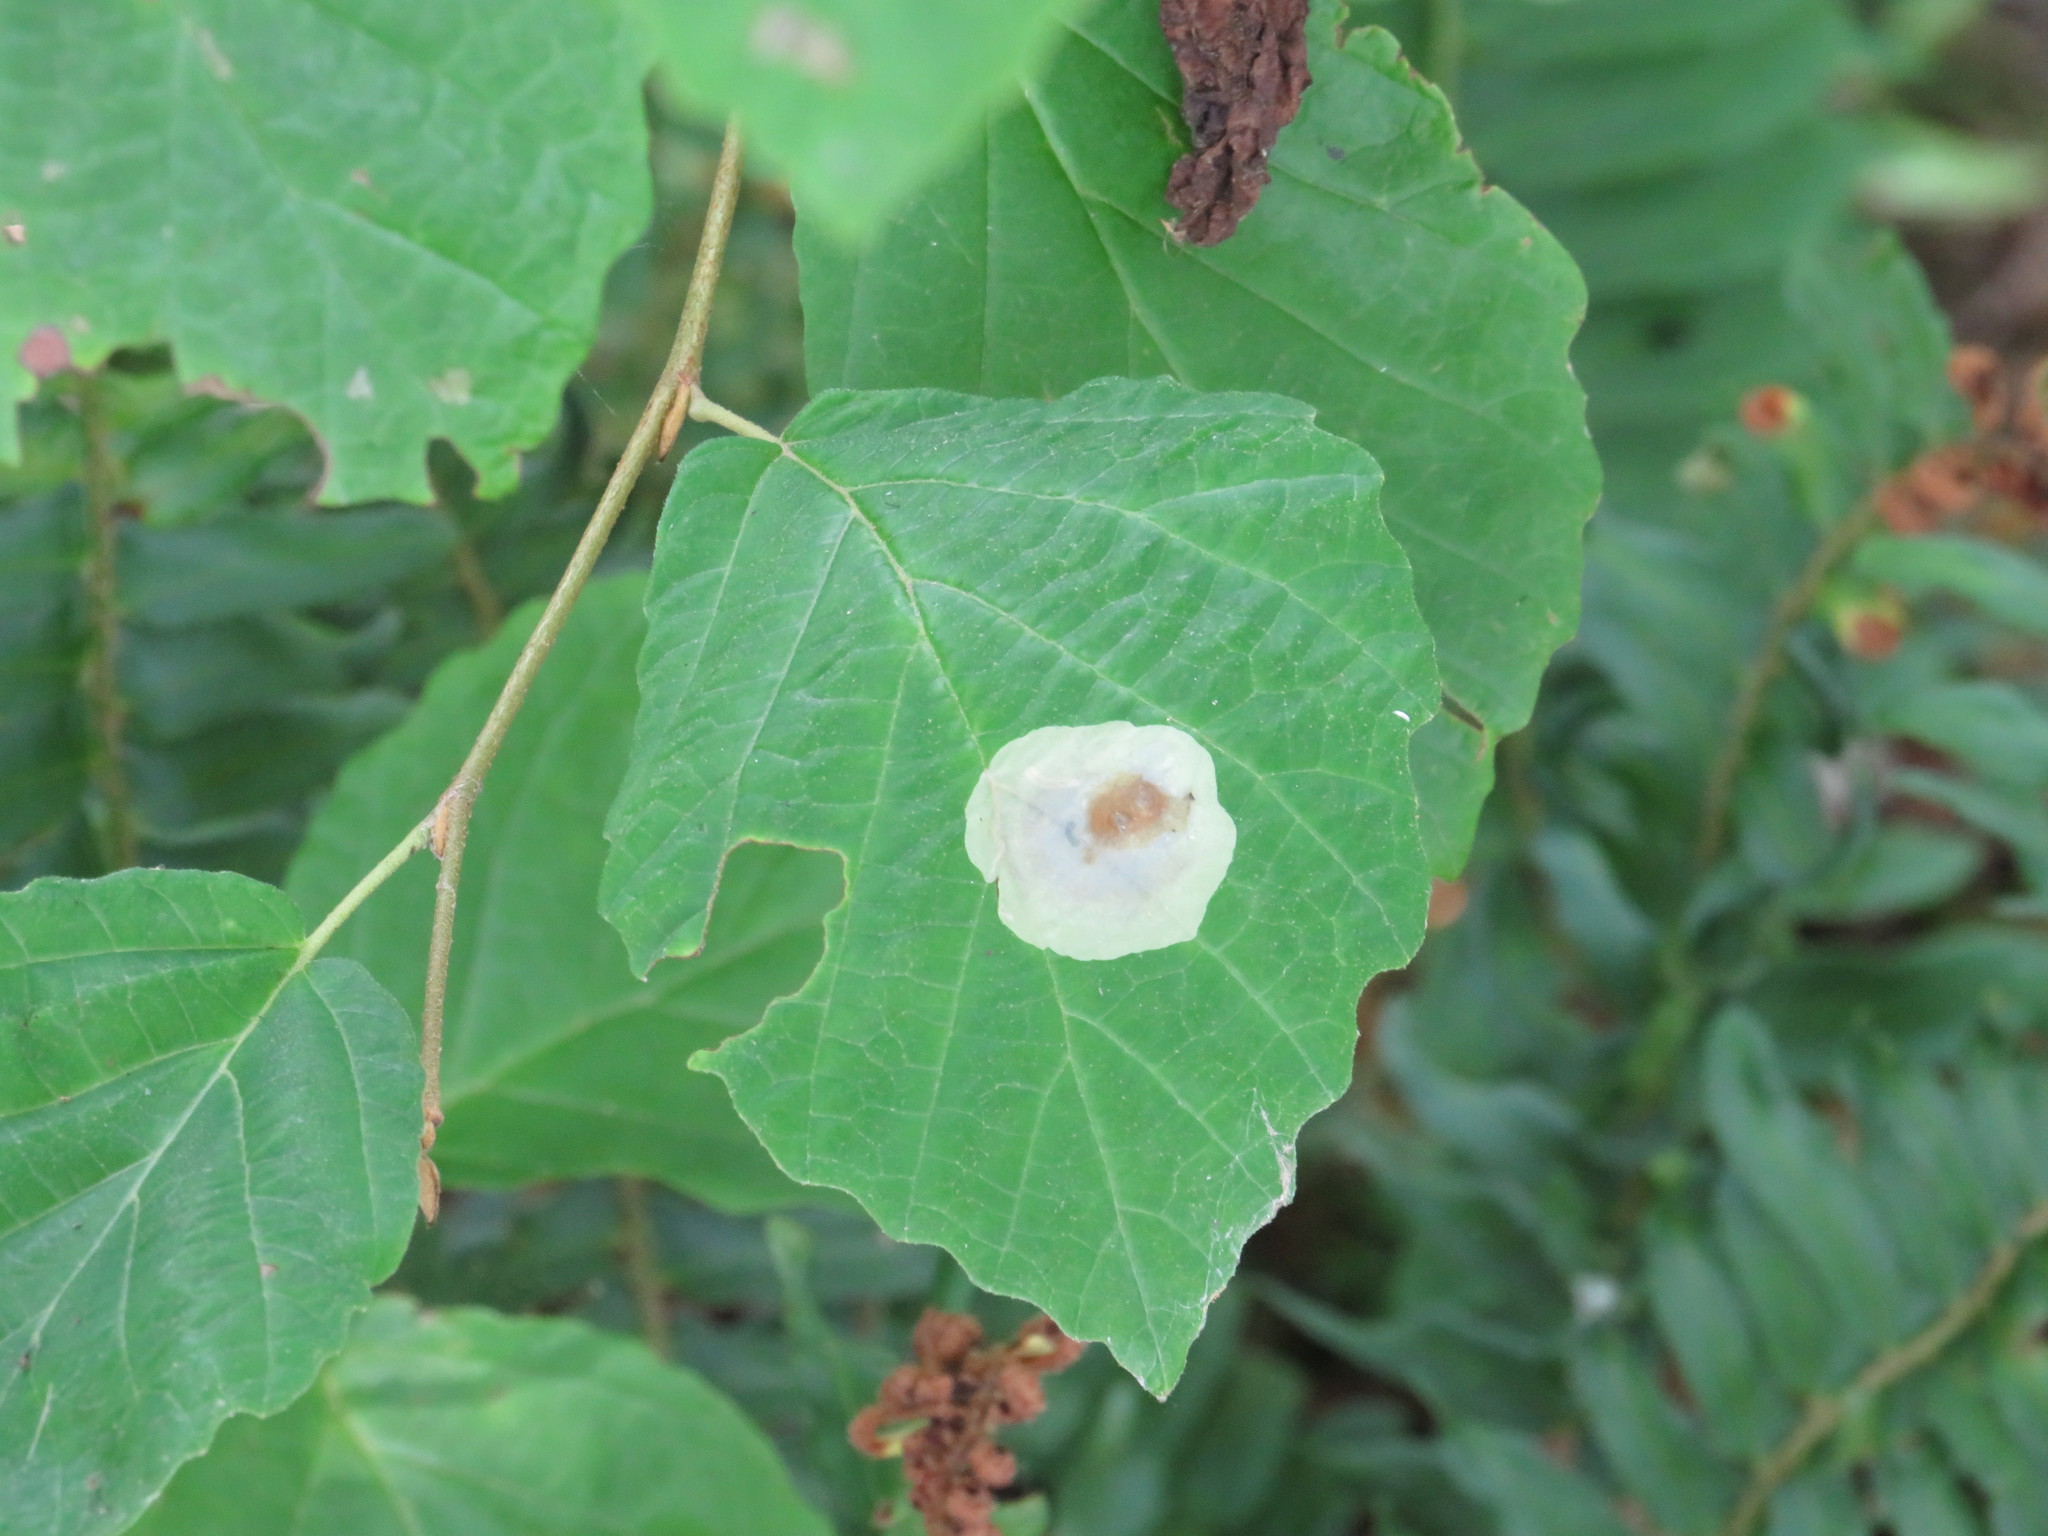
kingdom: Animalia
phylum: Arthropoda
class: Insecta
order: Lepidoptera
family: Gracillariidae
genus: Cameraria
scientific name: Cameraria hamameliella
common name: Witchhazel leafminer
